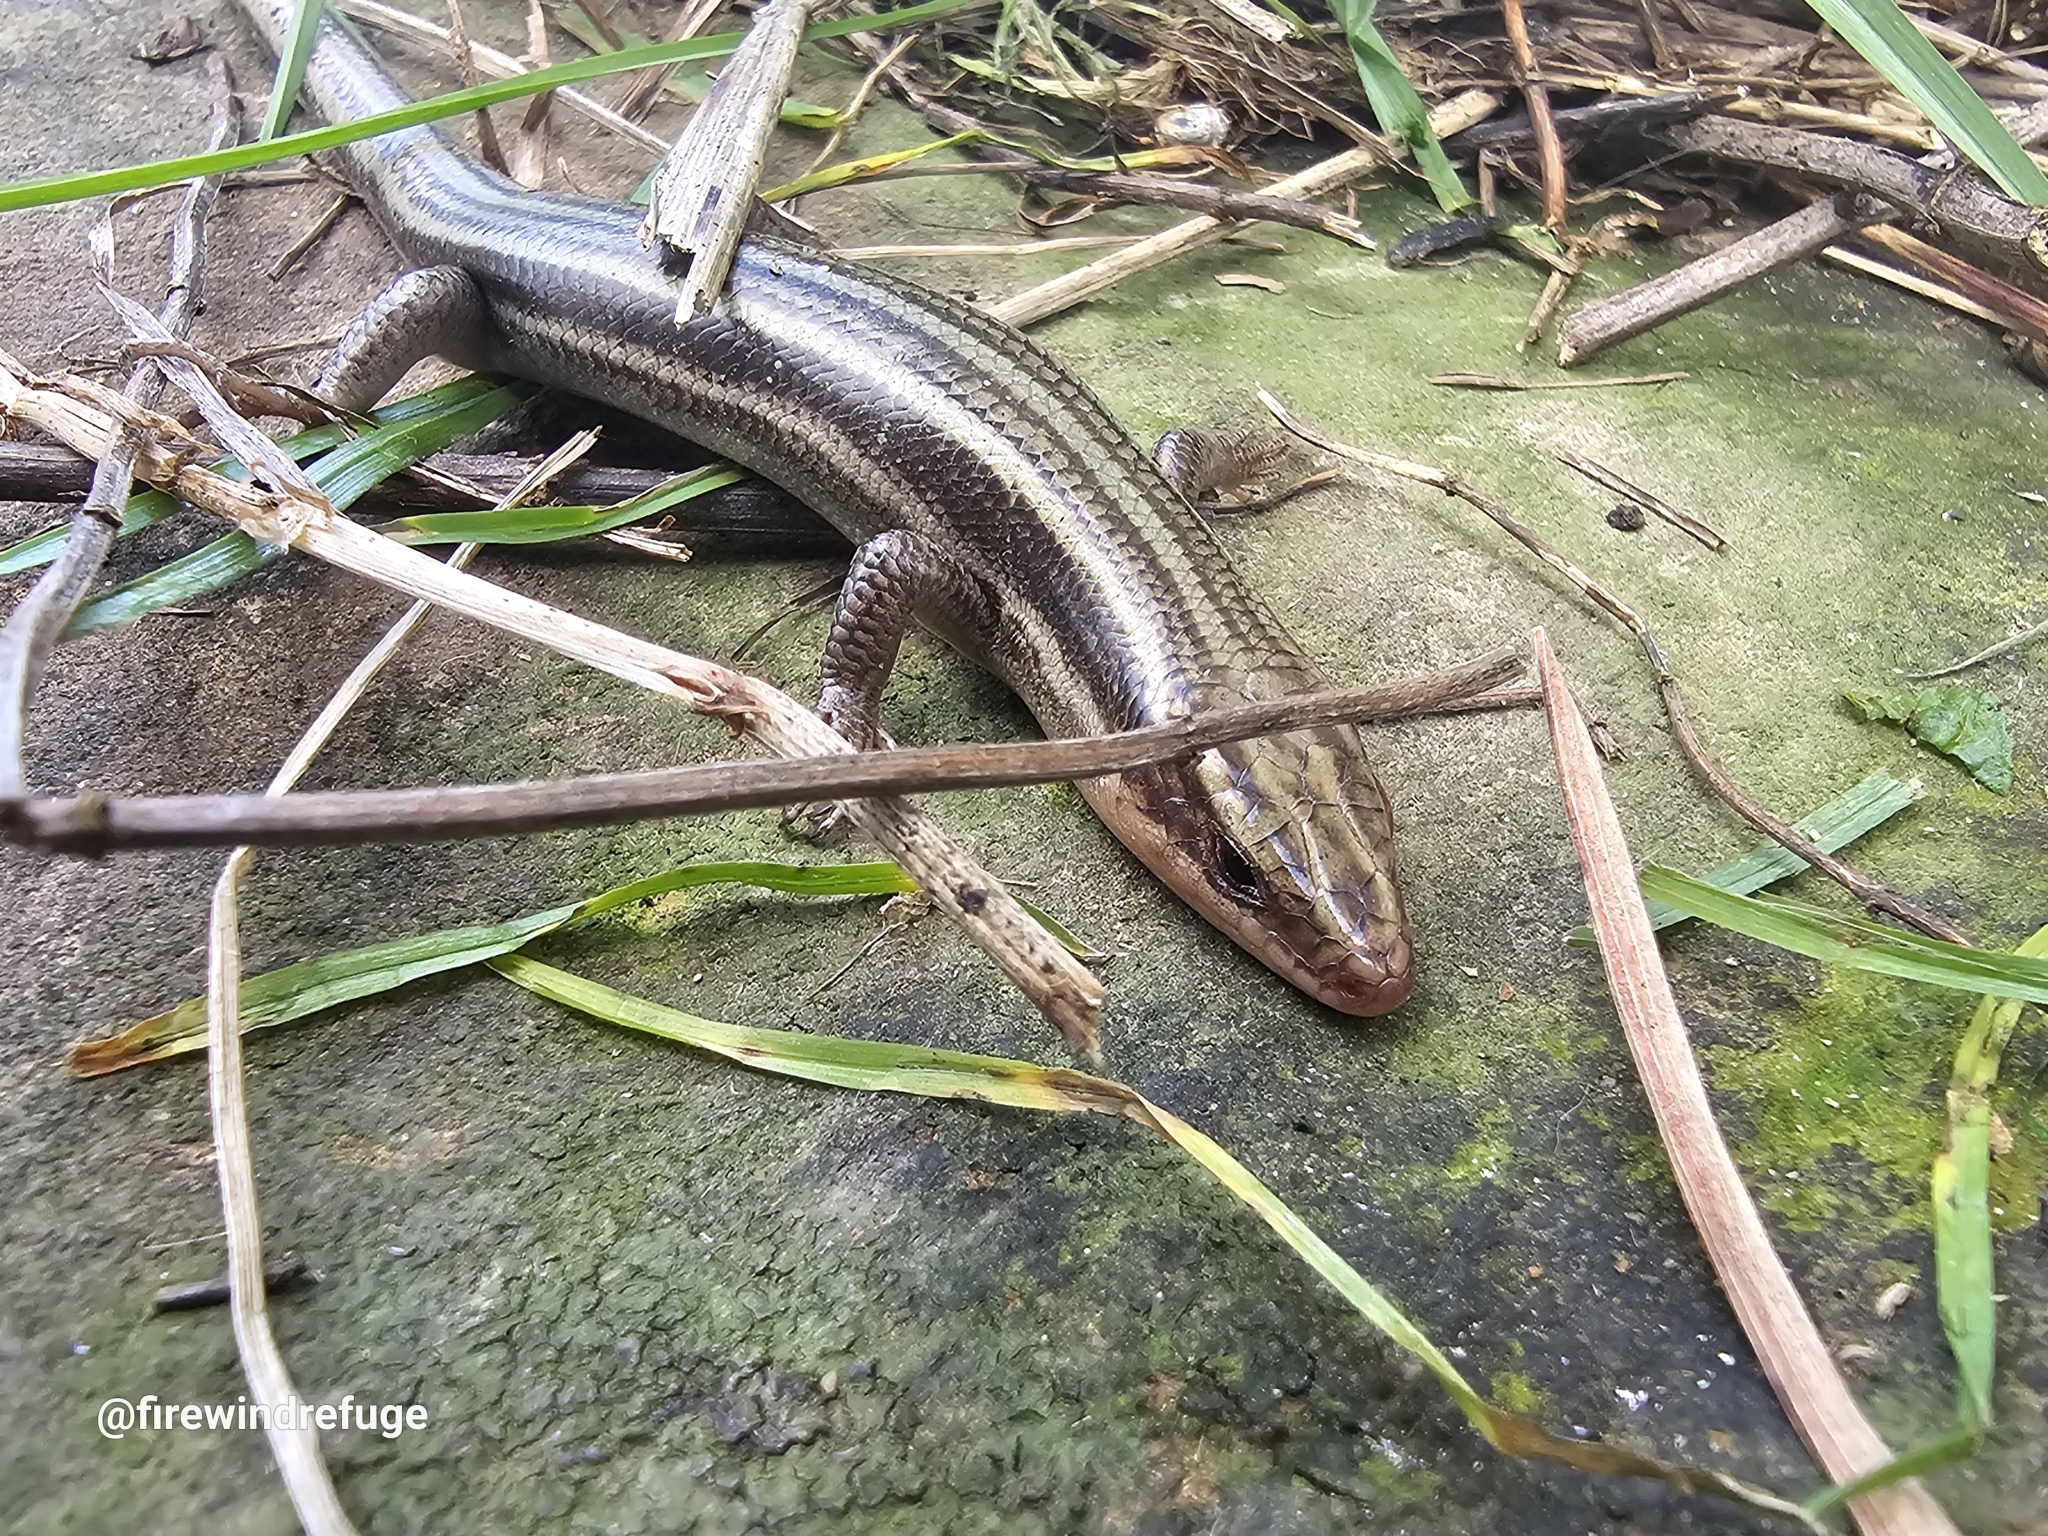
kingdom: Animalia
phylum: Chordata
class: Squamata
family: Scincidae
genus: Plestiodon
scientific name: Plestiodon fasciatus
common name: Five-lined skink
